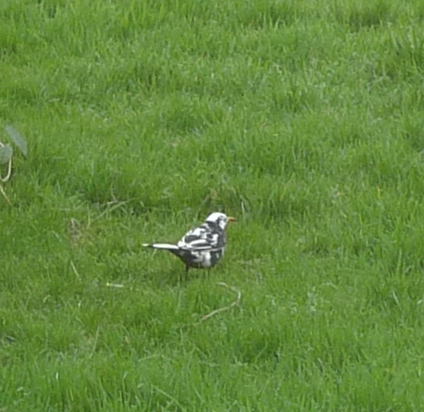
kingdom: Animalia
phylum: Chordata
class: Aves
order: Passeriformes
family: Turdidae
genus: Turdus
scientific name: Turdus merula
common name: Common blackbird
